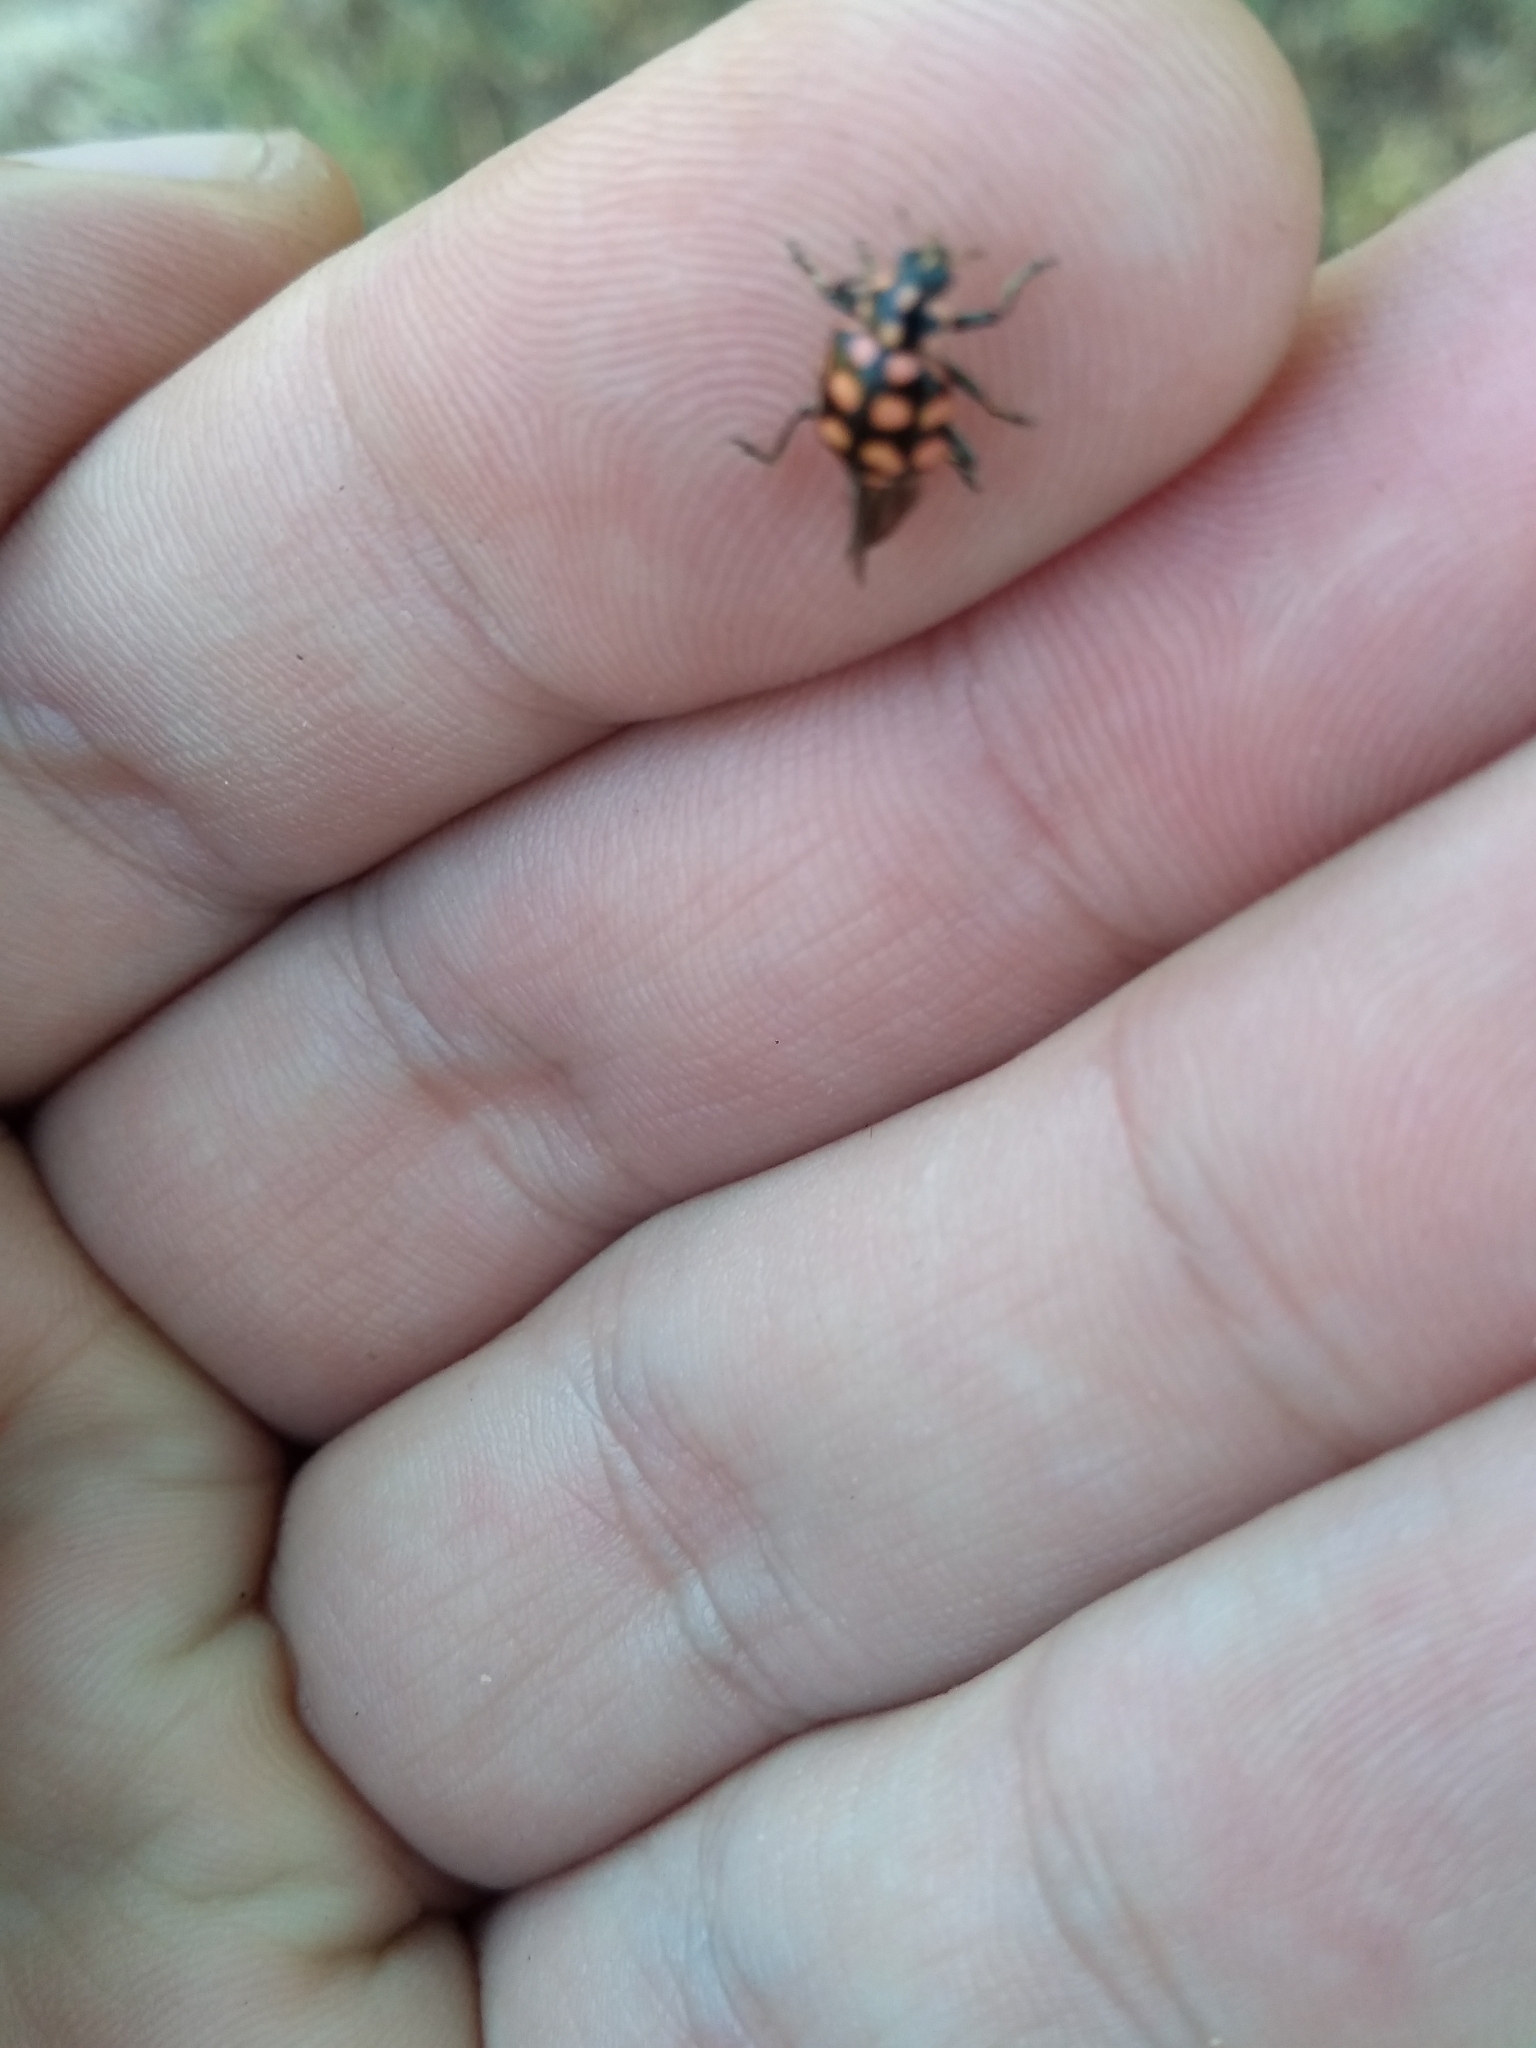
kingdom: Animalia
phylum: Arthropoda
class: Insecta
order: Coleoptera
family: Coccinellidae
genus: Coleomegilla
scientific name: Coleomegilla
